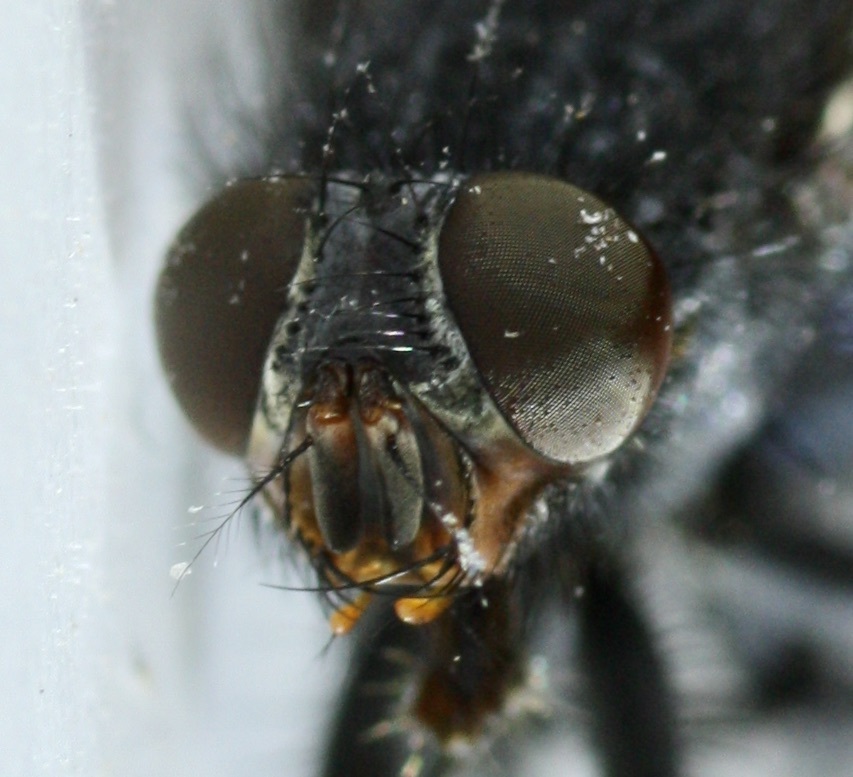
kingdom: Animalia
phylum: Arthropoda
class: Insecta
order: Diptera
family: Calliphoridae
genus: Calliphora
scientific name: Calliphora latifrons
